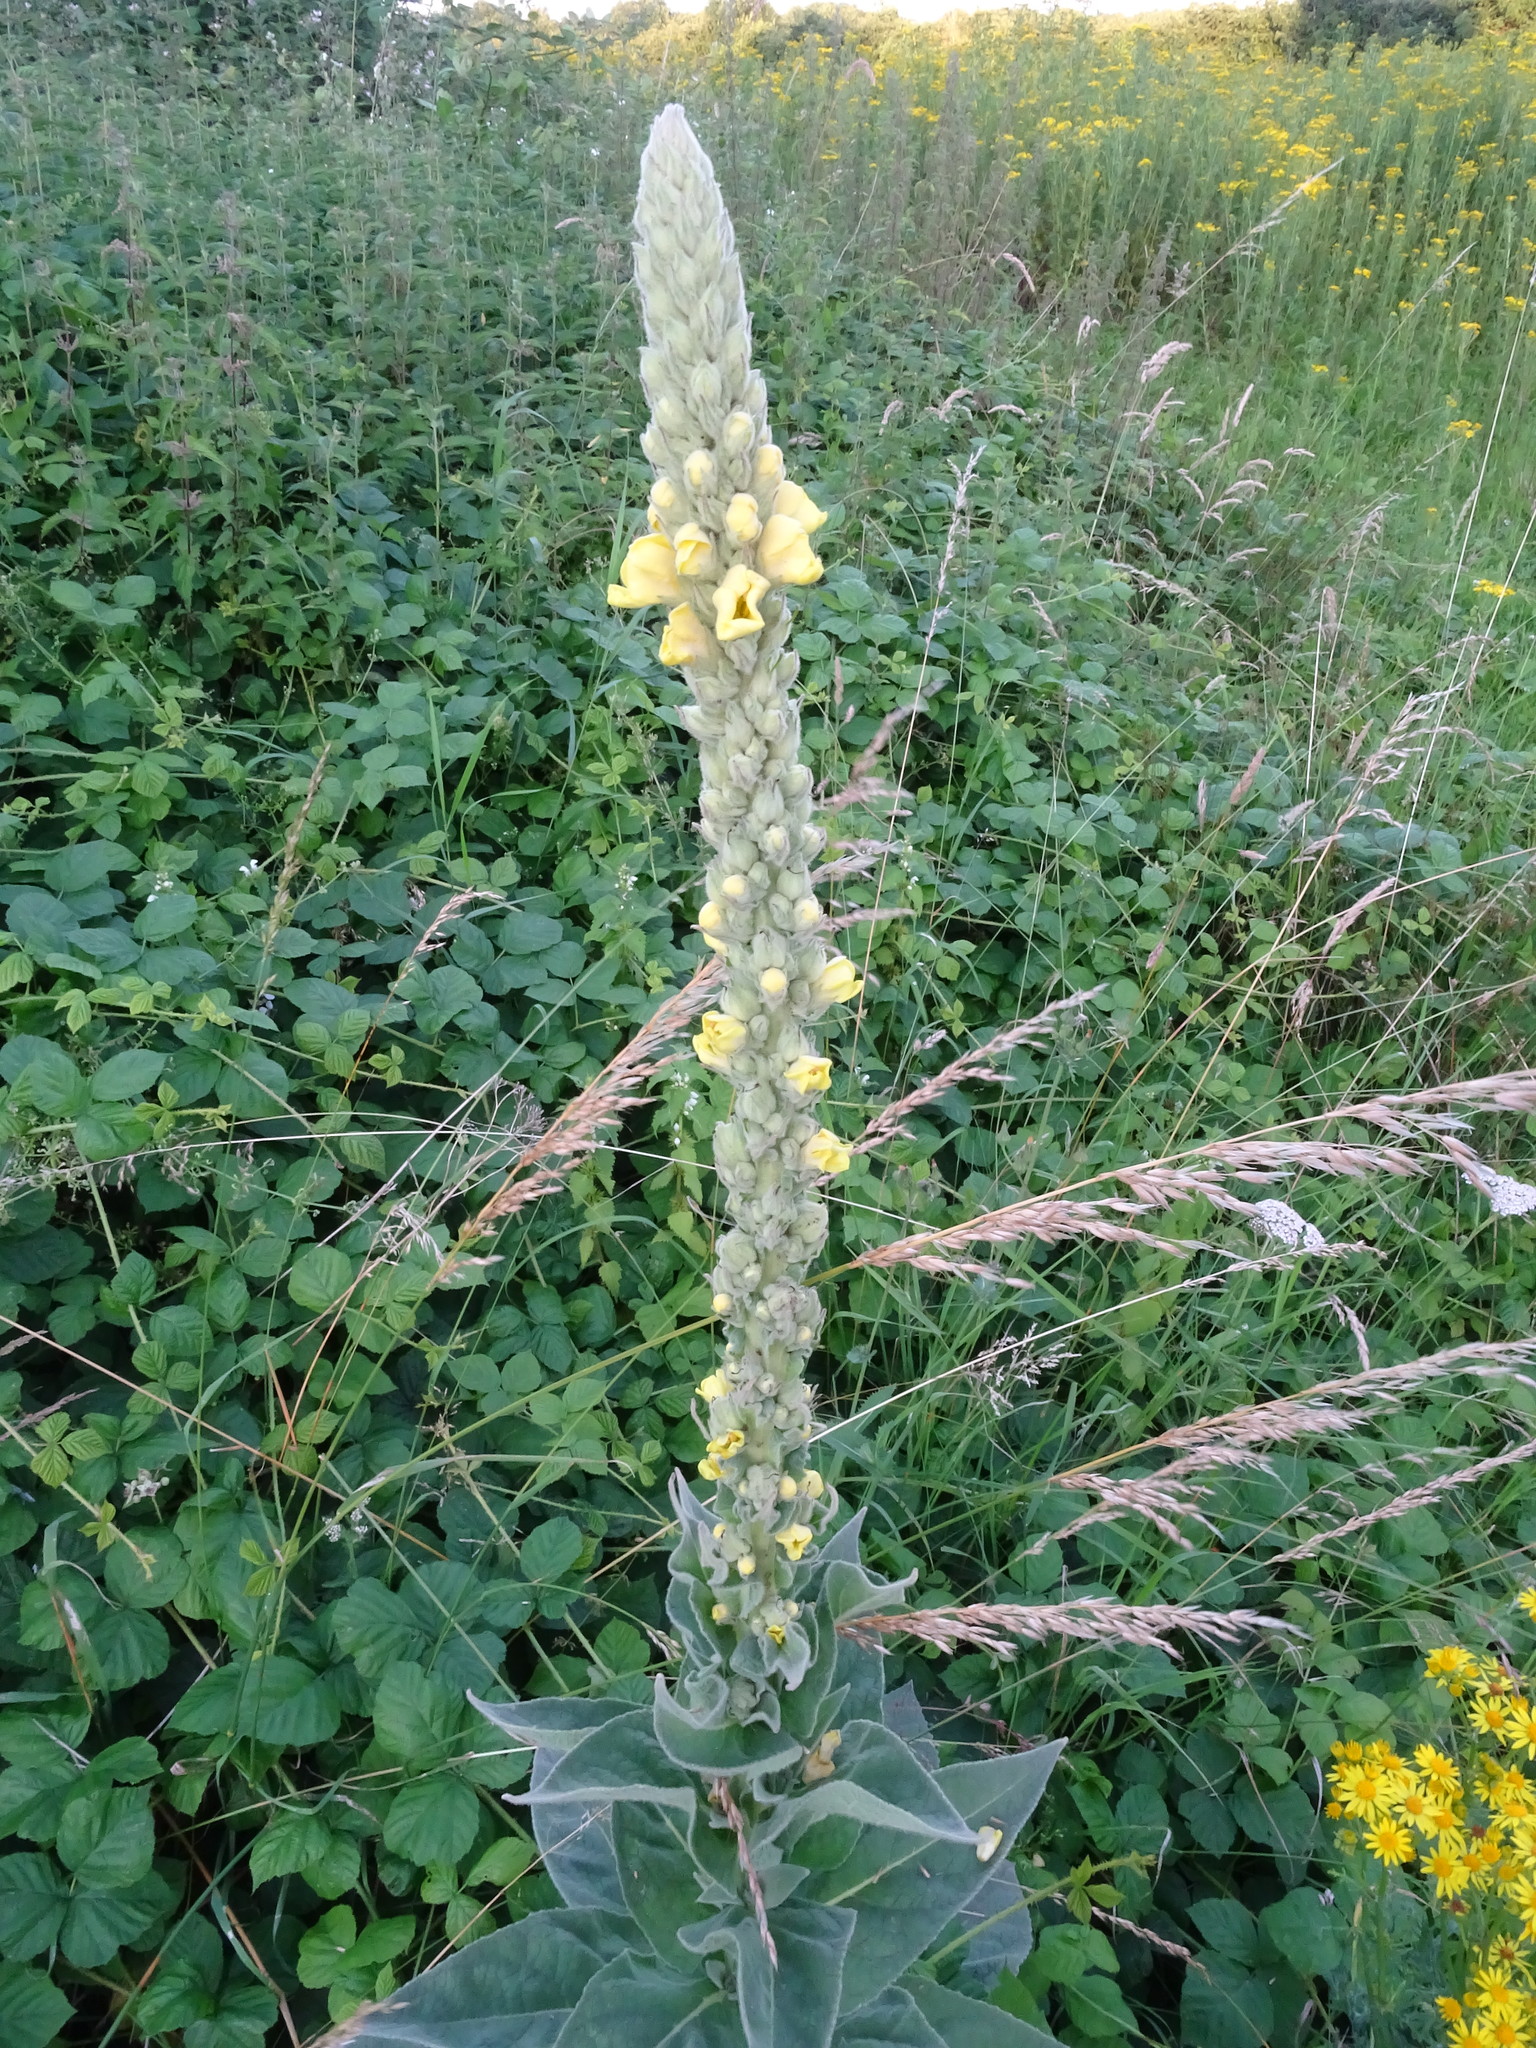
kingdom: Plantae
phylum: Tracheophyta
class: Magnoliopsida
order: Lamiales
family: Scrophulariaceae
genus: Verbascum
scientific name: Verbascum thapsus
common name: Common mullein
